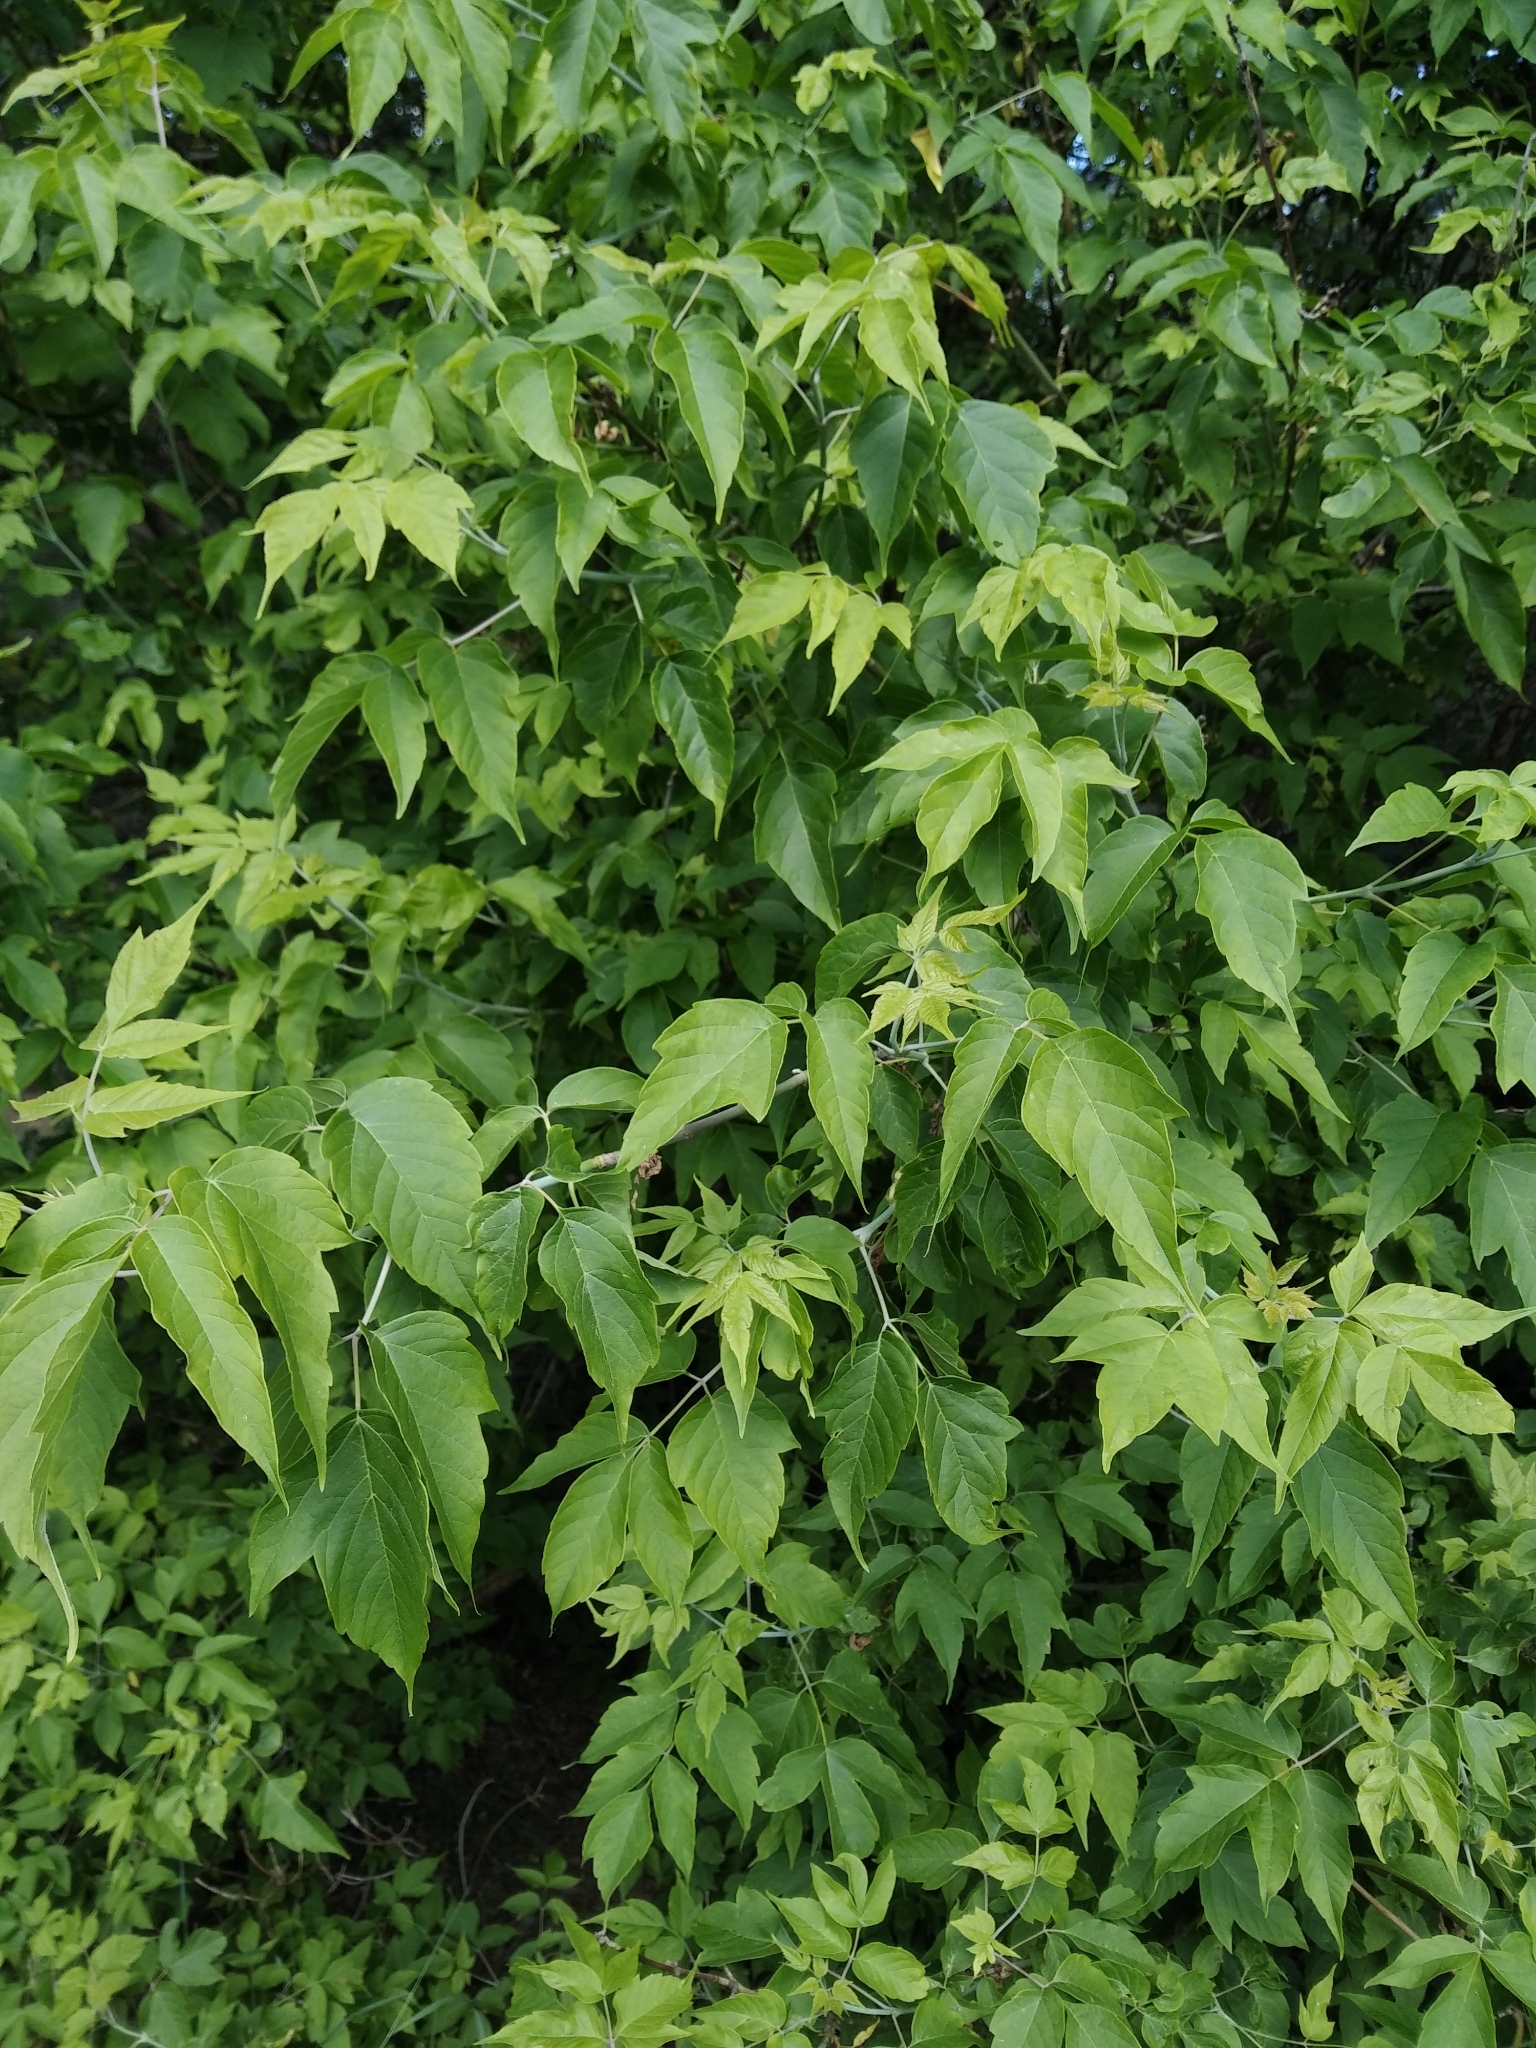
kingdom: Plantae
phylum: Tracheophyta
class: Magnoliopsida
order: Sapindales
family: Sapindaceae
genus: Acer
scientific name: Acer negundo
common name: Ashleaf maple
